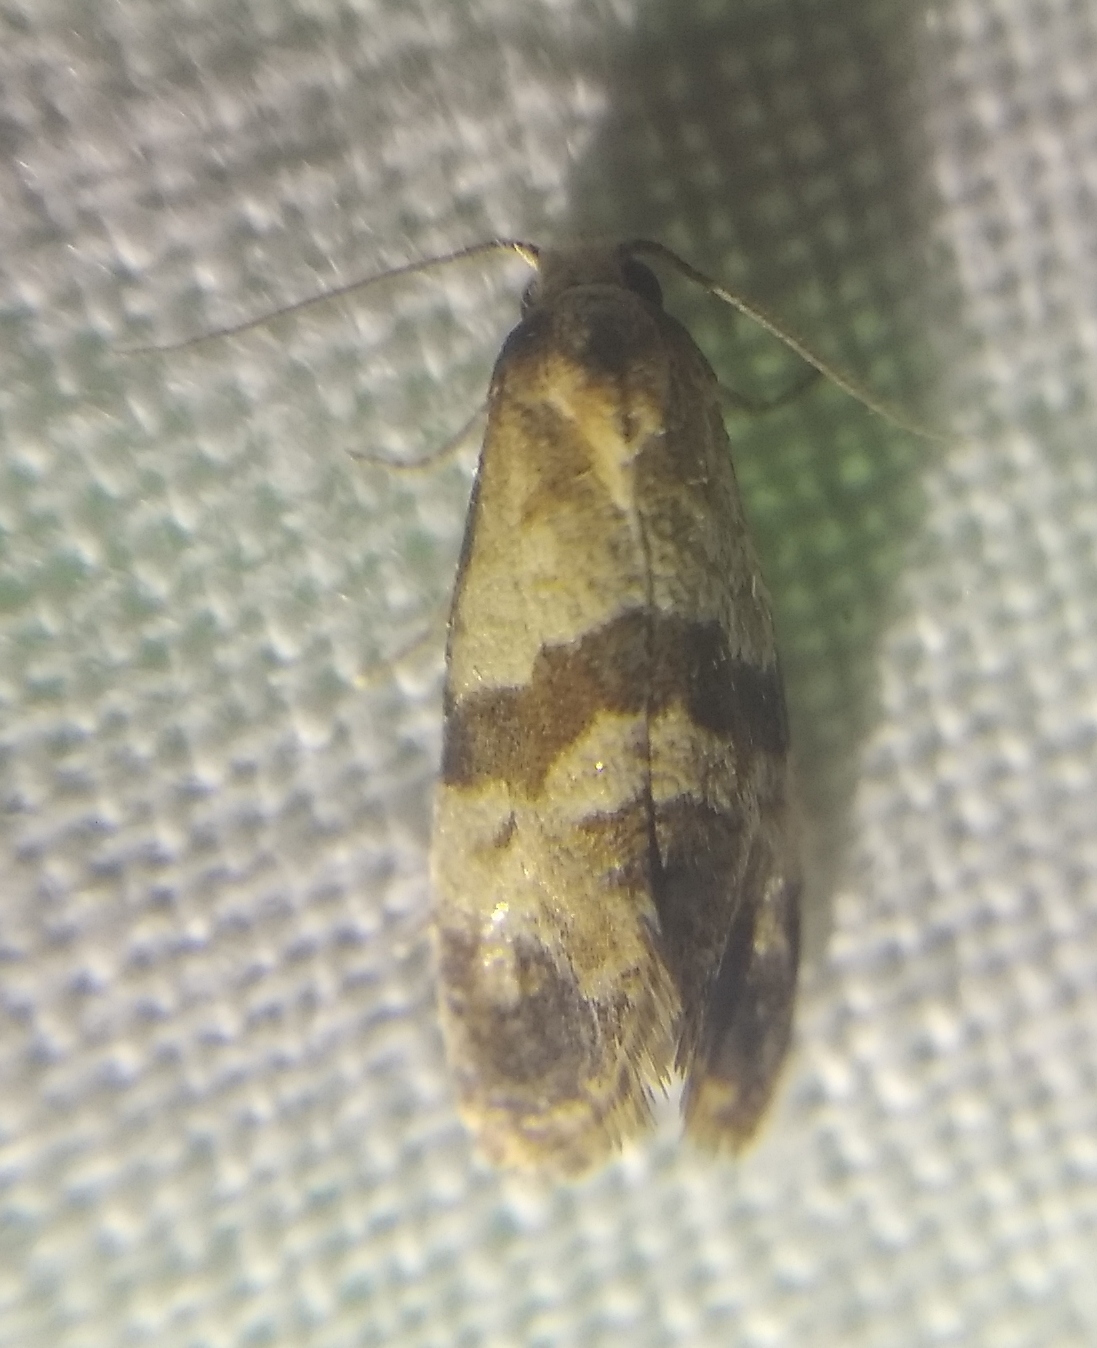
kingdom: Animalia
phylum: Arthropoda
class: Insecta
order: Lepidoptera
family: Tortricidae
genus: Phalonidia
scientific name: Phalonidia contractana
